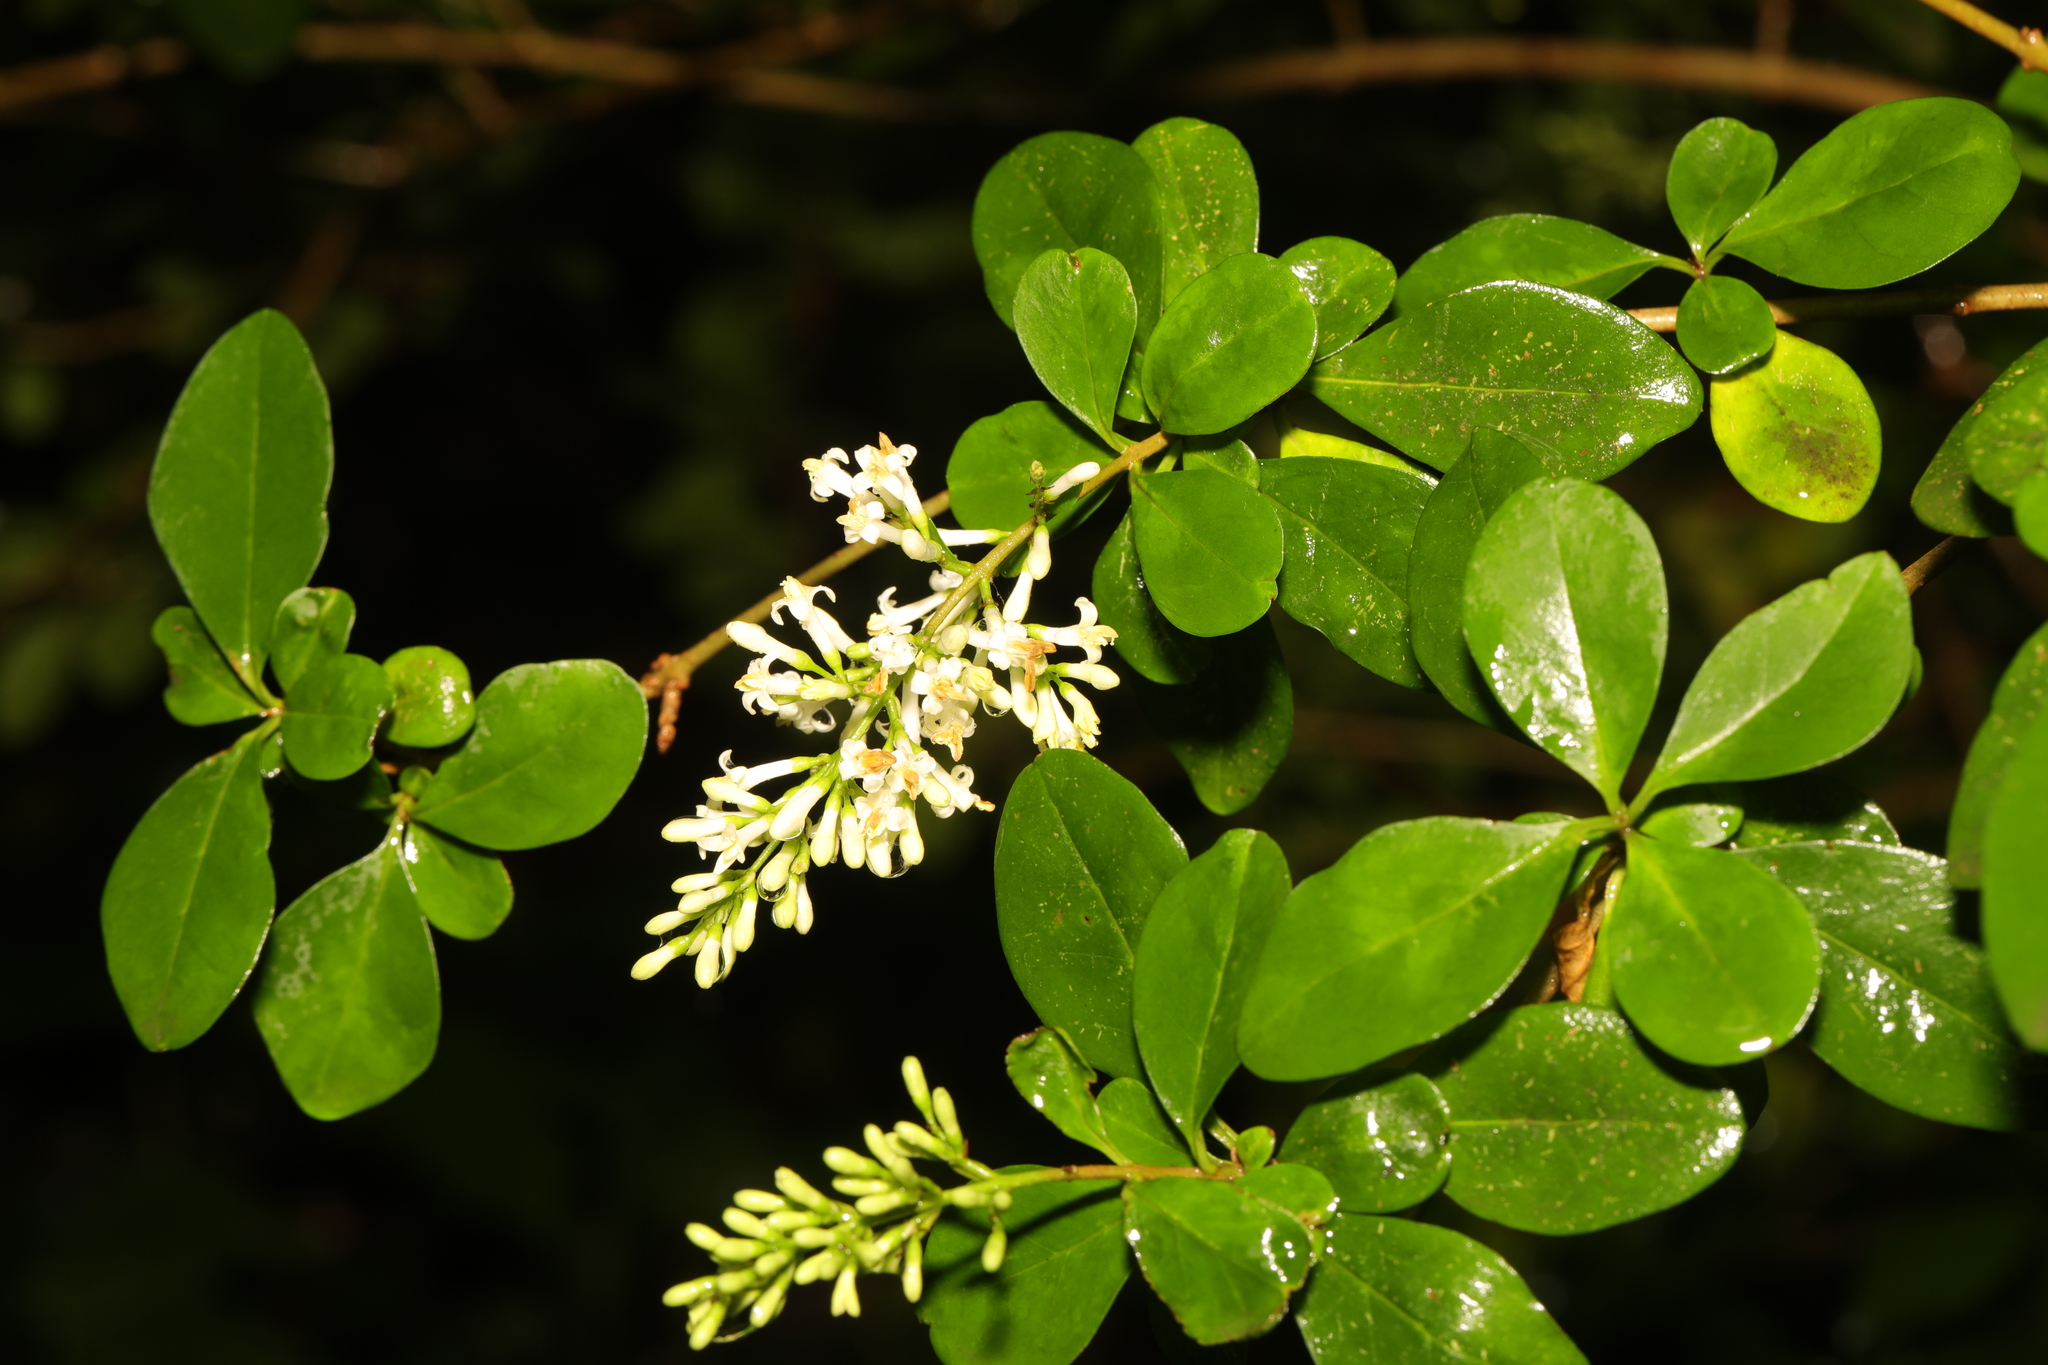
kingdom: Plantae
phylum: Tracheophyta
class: Magnoliopsida
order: Lamiales
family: Oleaceae
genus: Ligustrum
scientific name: Ligustrum ovalifolium
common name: California privet
